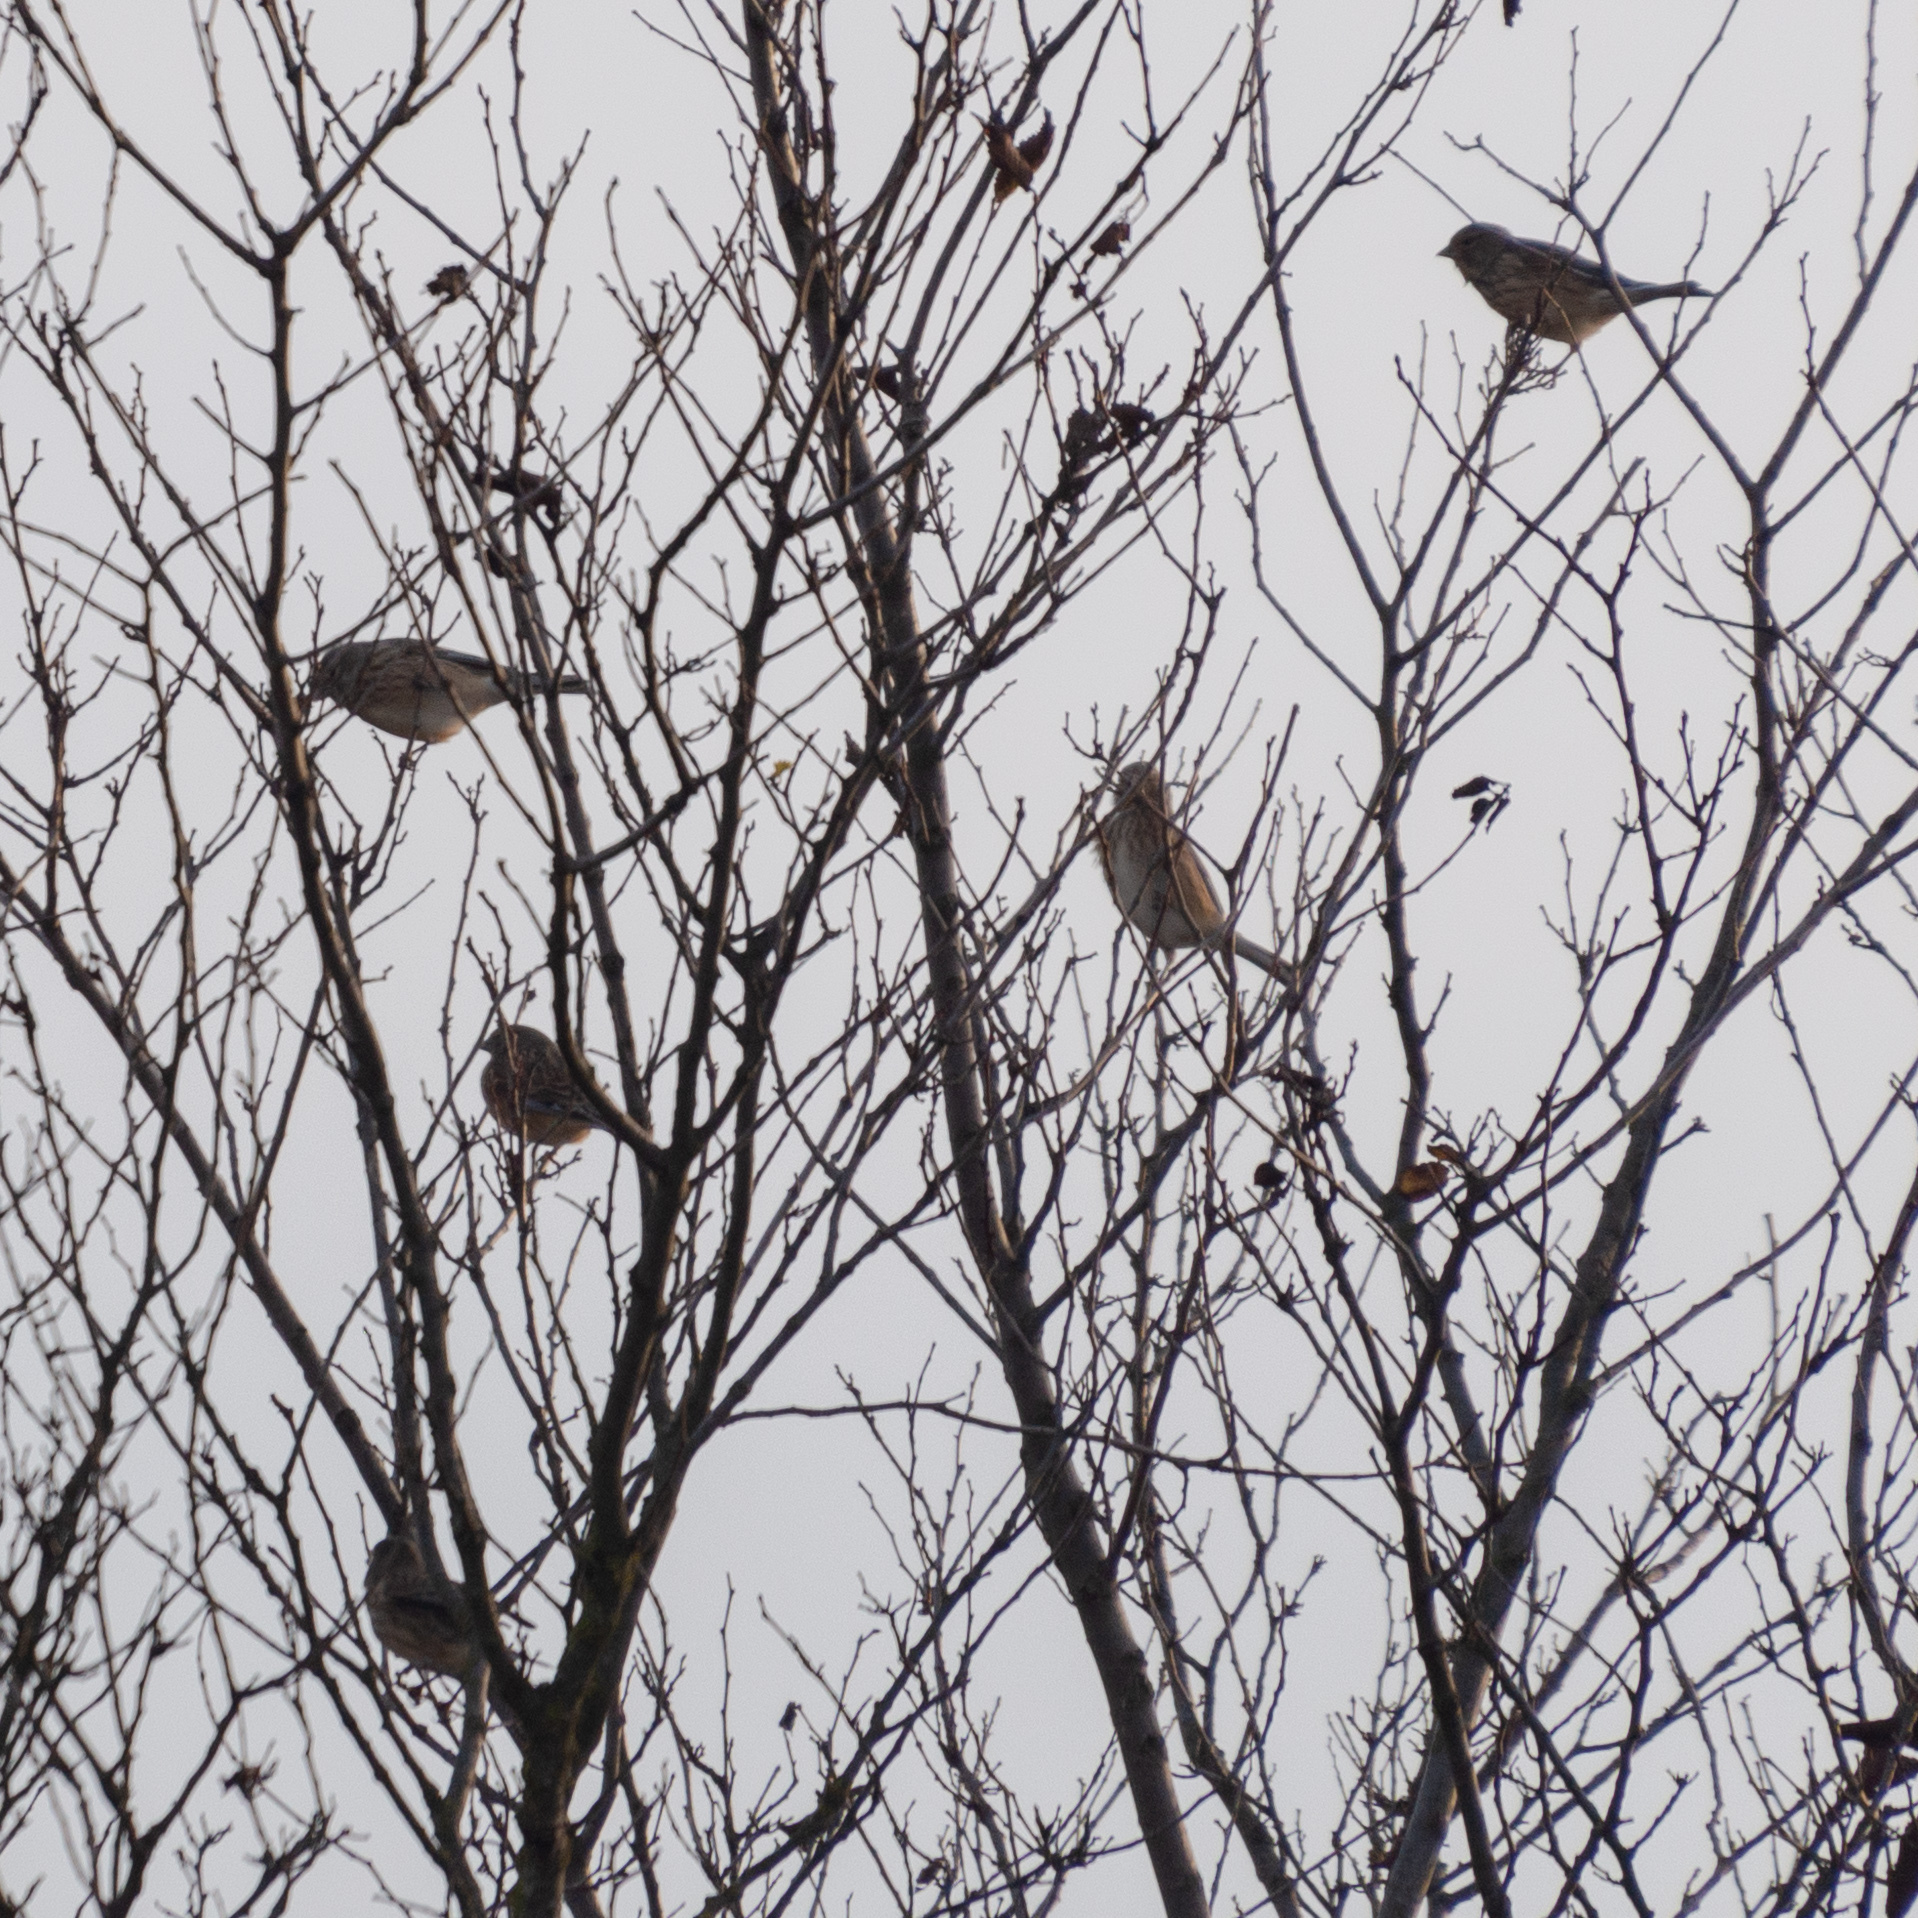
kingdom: Animalia
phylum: Chordata
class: Aves
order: Passeriformes
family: Fringillidae
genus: Linaria
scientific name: Linaria cannabina
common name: Common linnet
